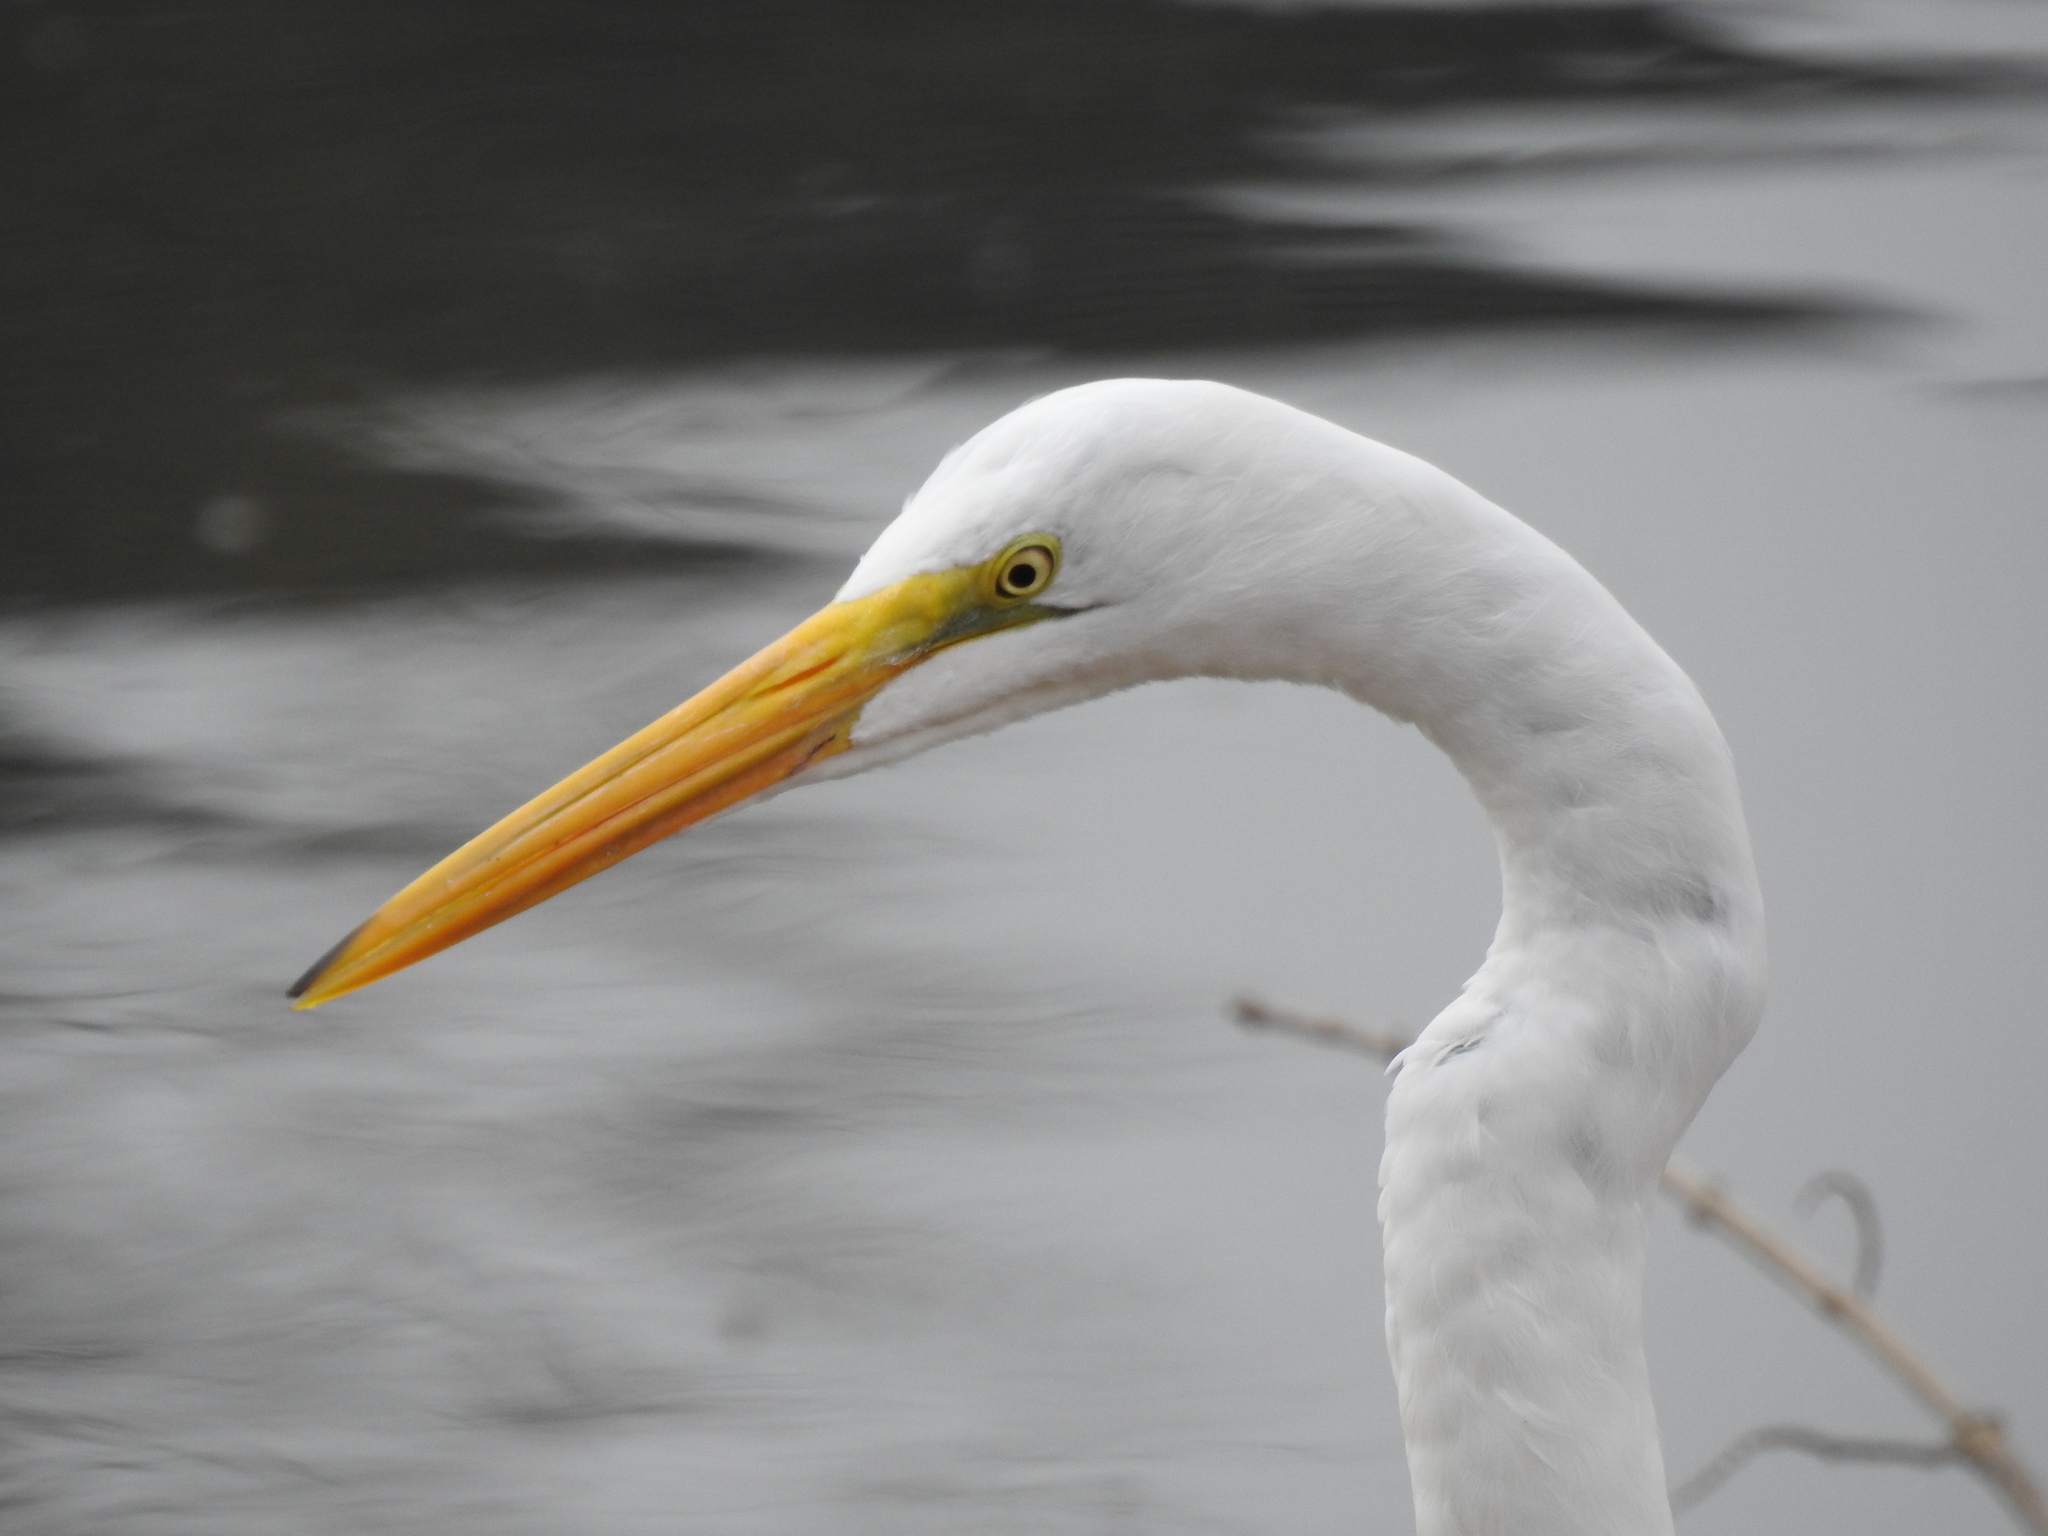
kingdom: Animalia
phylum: Chordata
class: Aves
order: Pelecaniformes
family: Ardeidae
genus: Ardea
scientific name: Ardea alba
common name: Great egret
